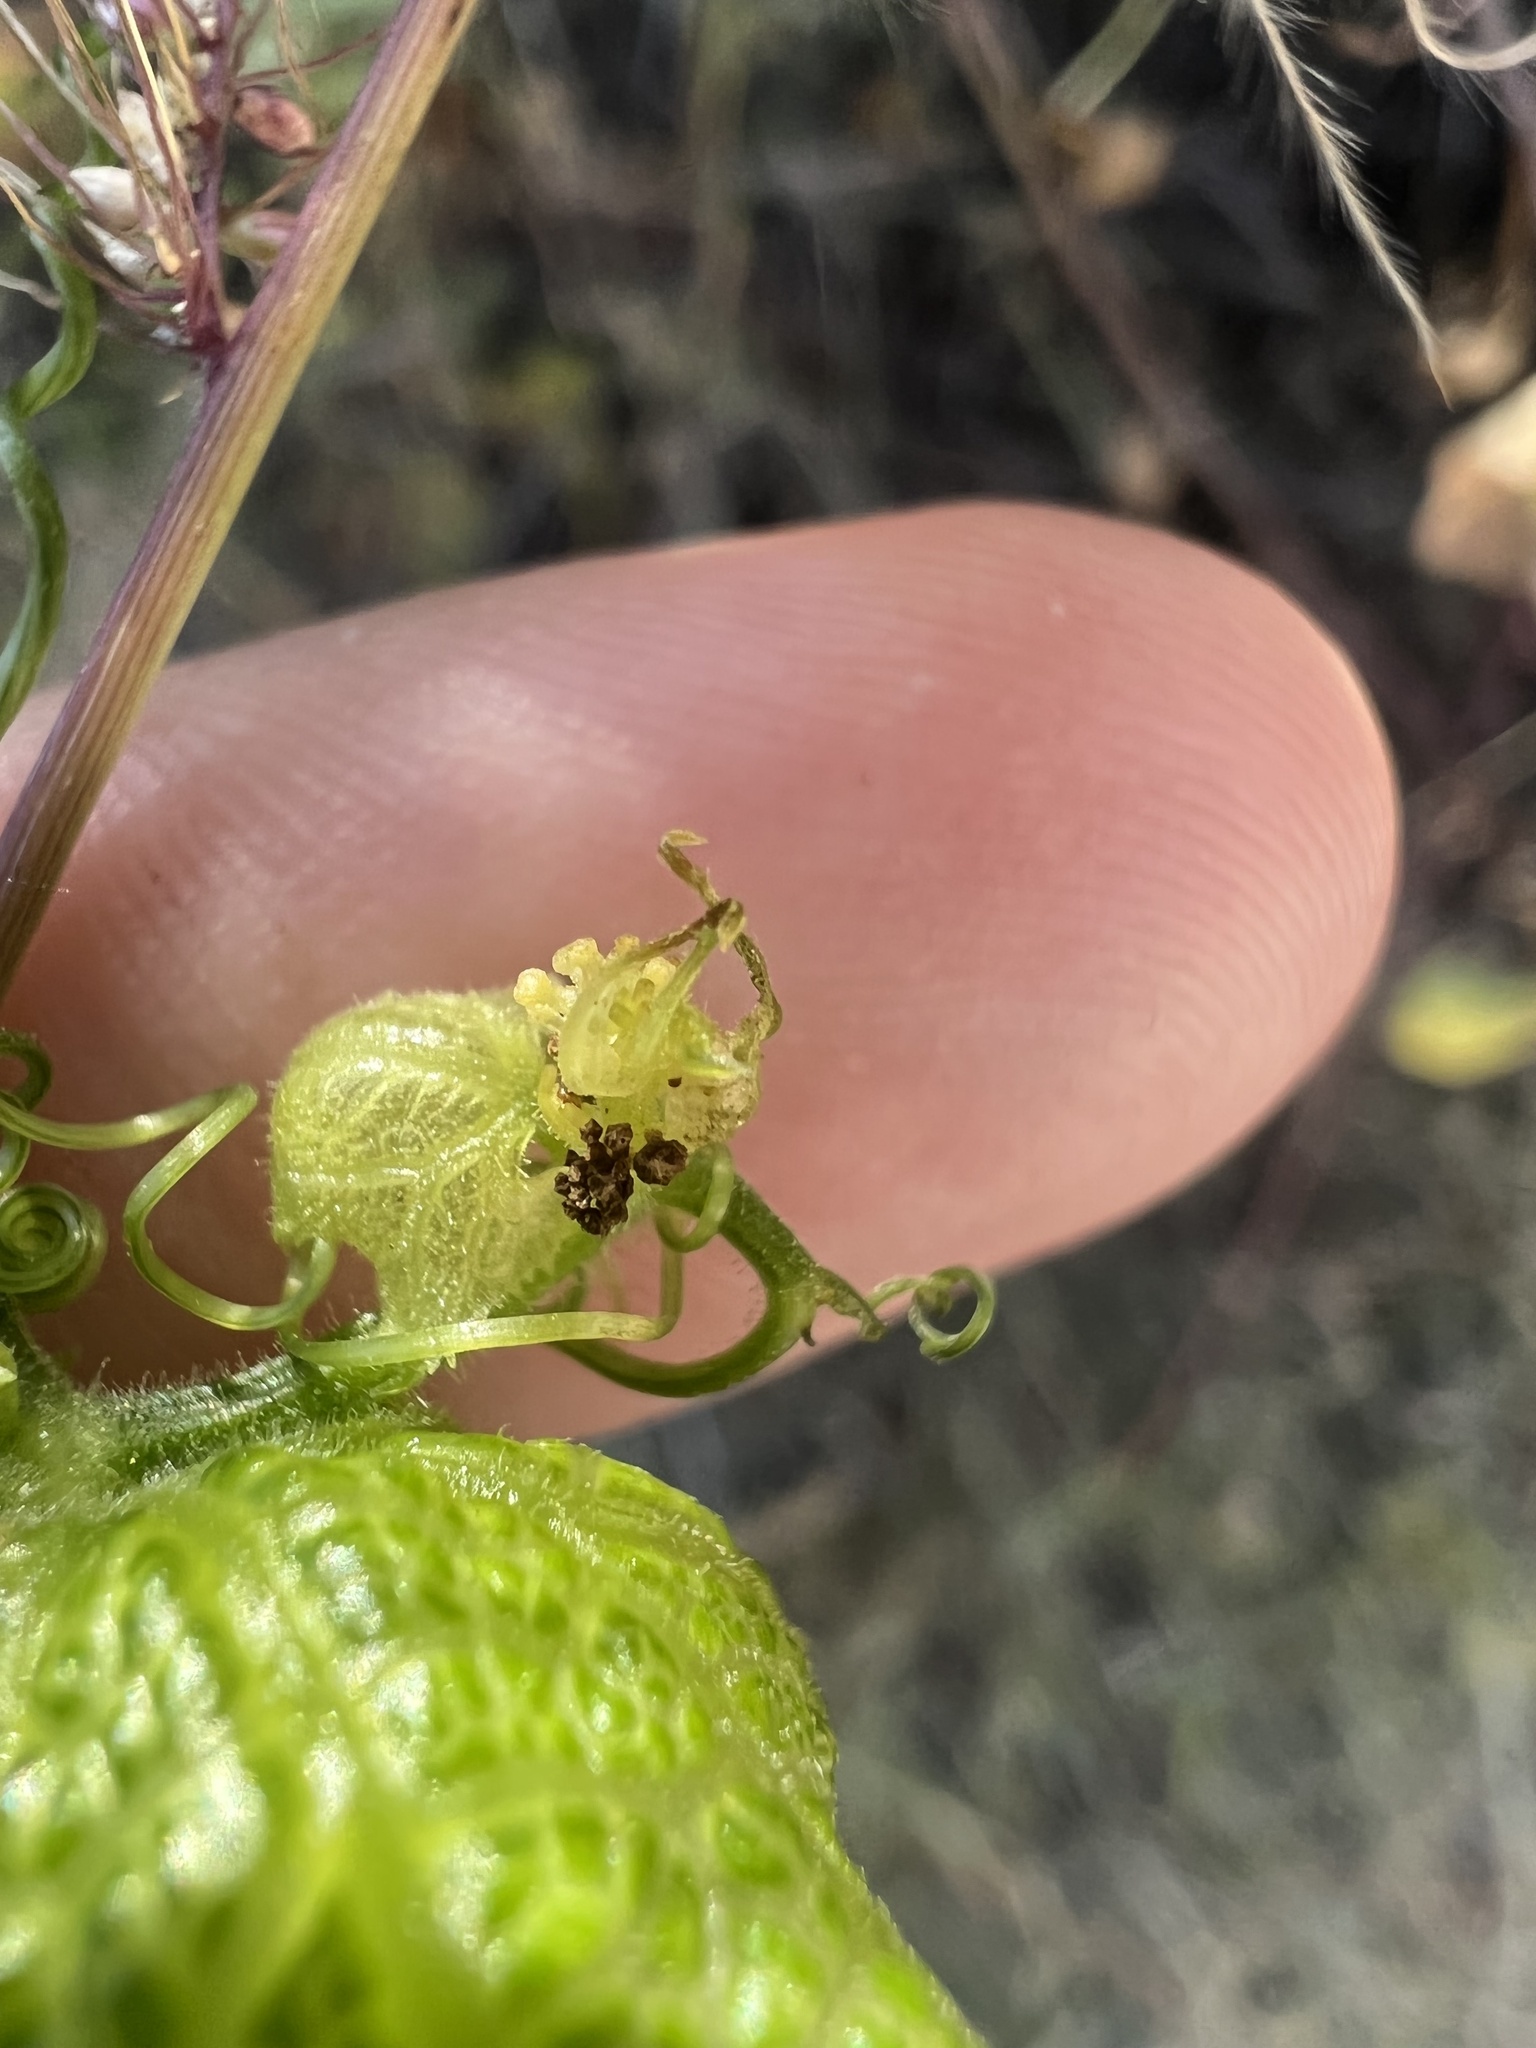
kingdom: Plantae
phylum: Tracheophyta
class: Magnoliopsida
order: Cucurbitales
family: Cucurbitaceae
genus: Sicyos
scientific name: Sicyos glaber
